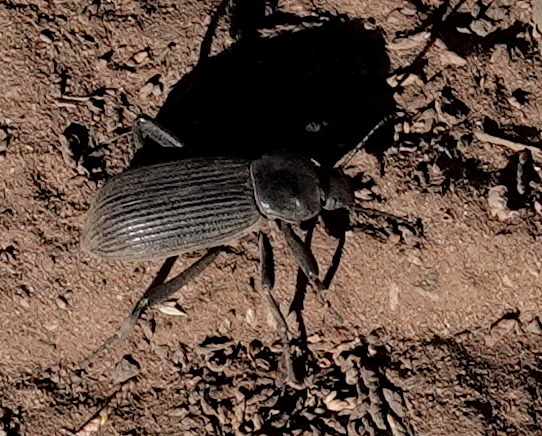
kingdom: Animalia
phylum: Arthropoda
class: Insecta
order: Coleoptera
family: Tenebrionidae
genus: Eleodes
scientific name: Eleodes obscura
